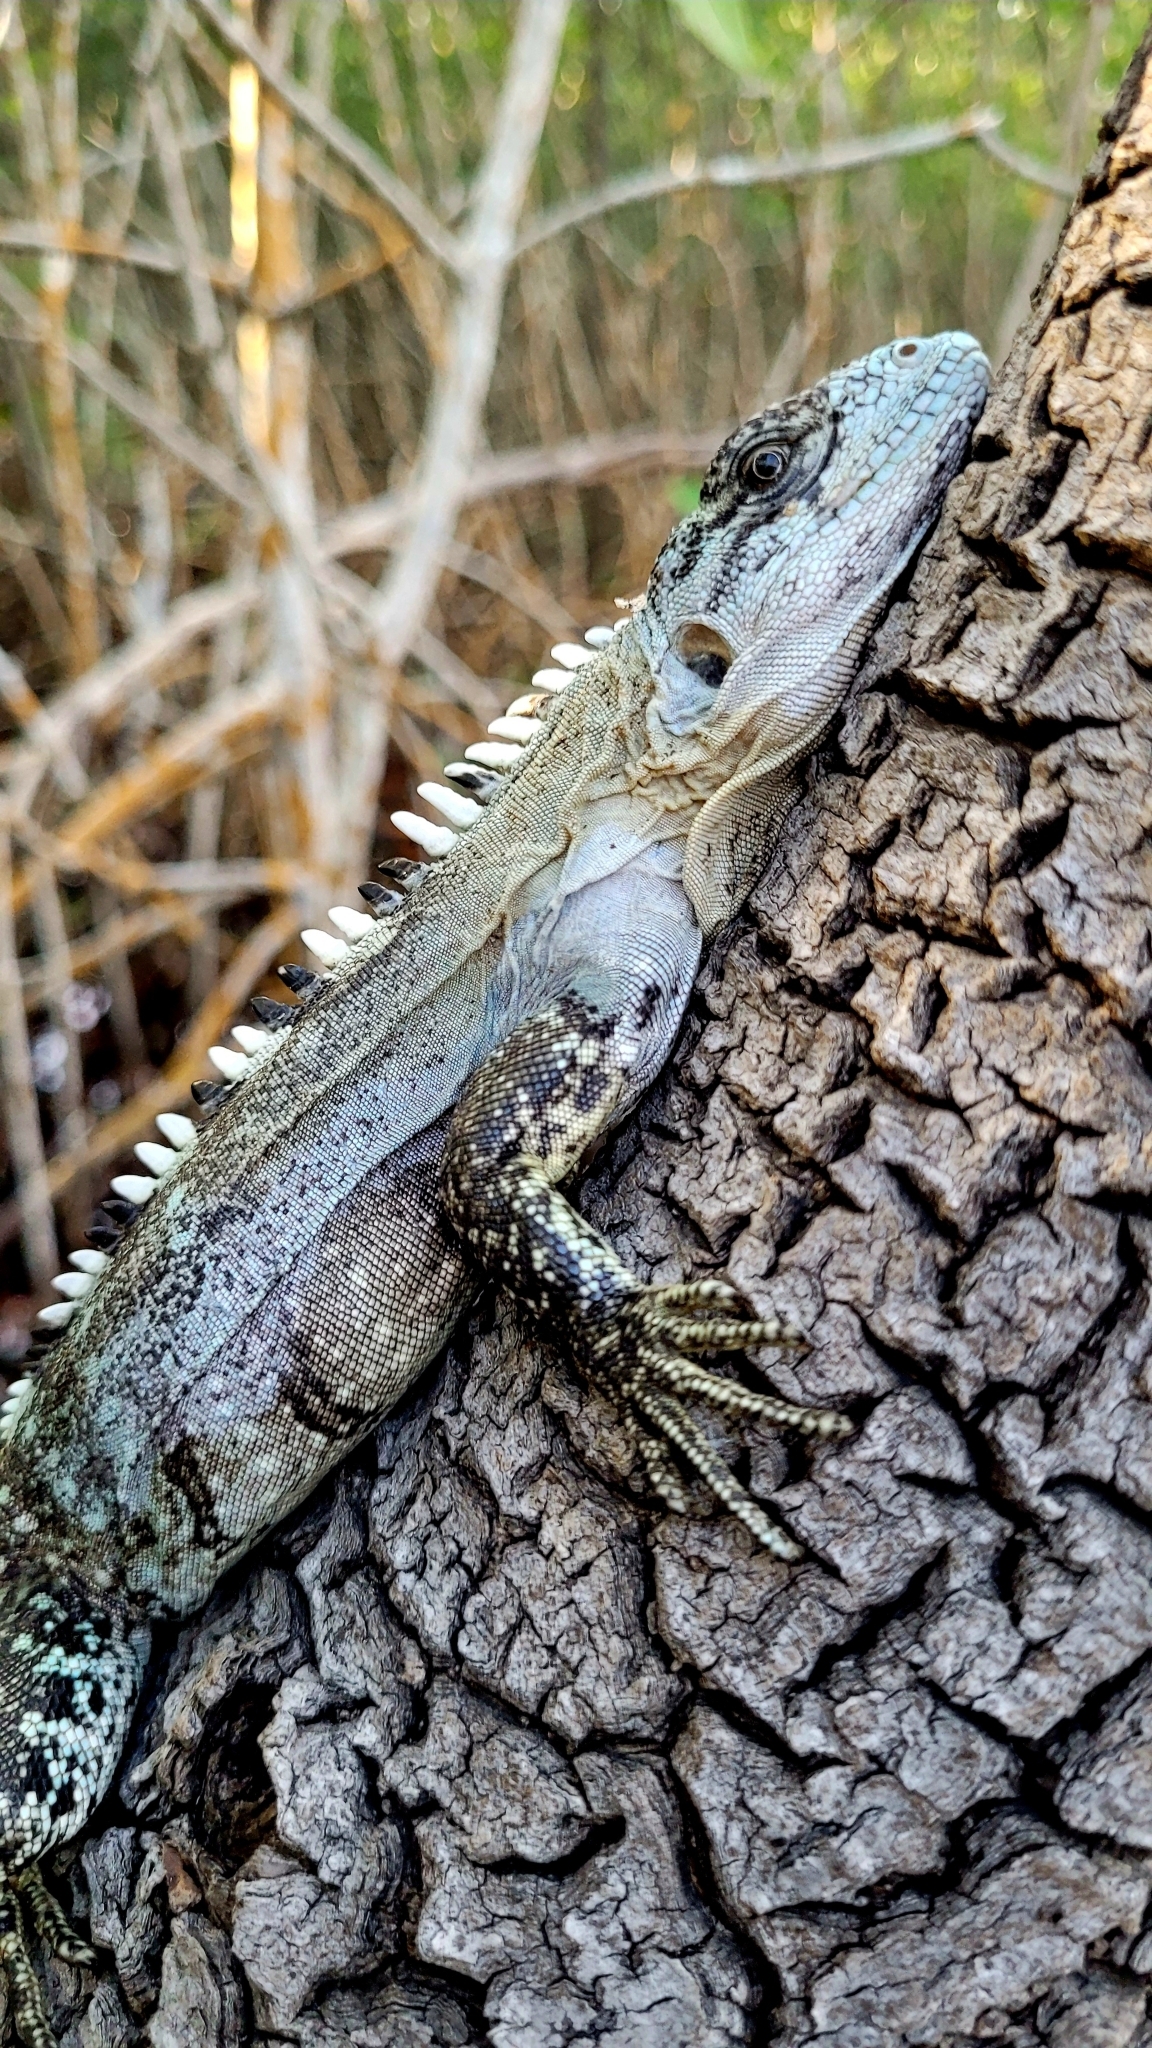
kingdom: Animalia
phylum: Chordata
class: Squamata
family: Iguanidae
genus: Ctenosaura
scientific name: Ctenosaura bakeri
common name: Utila spiny-tailed iguana
